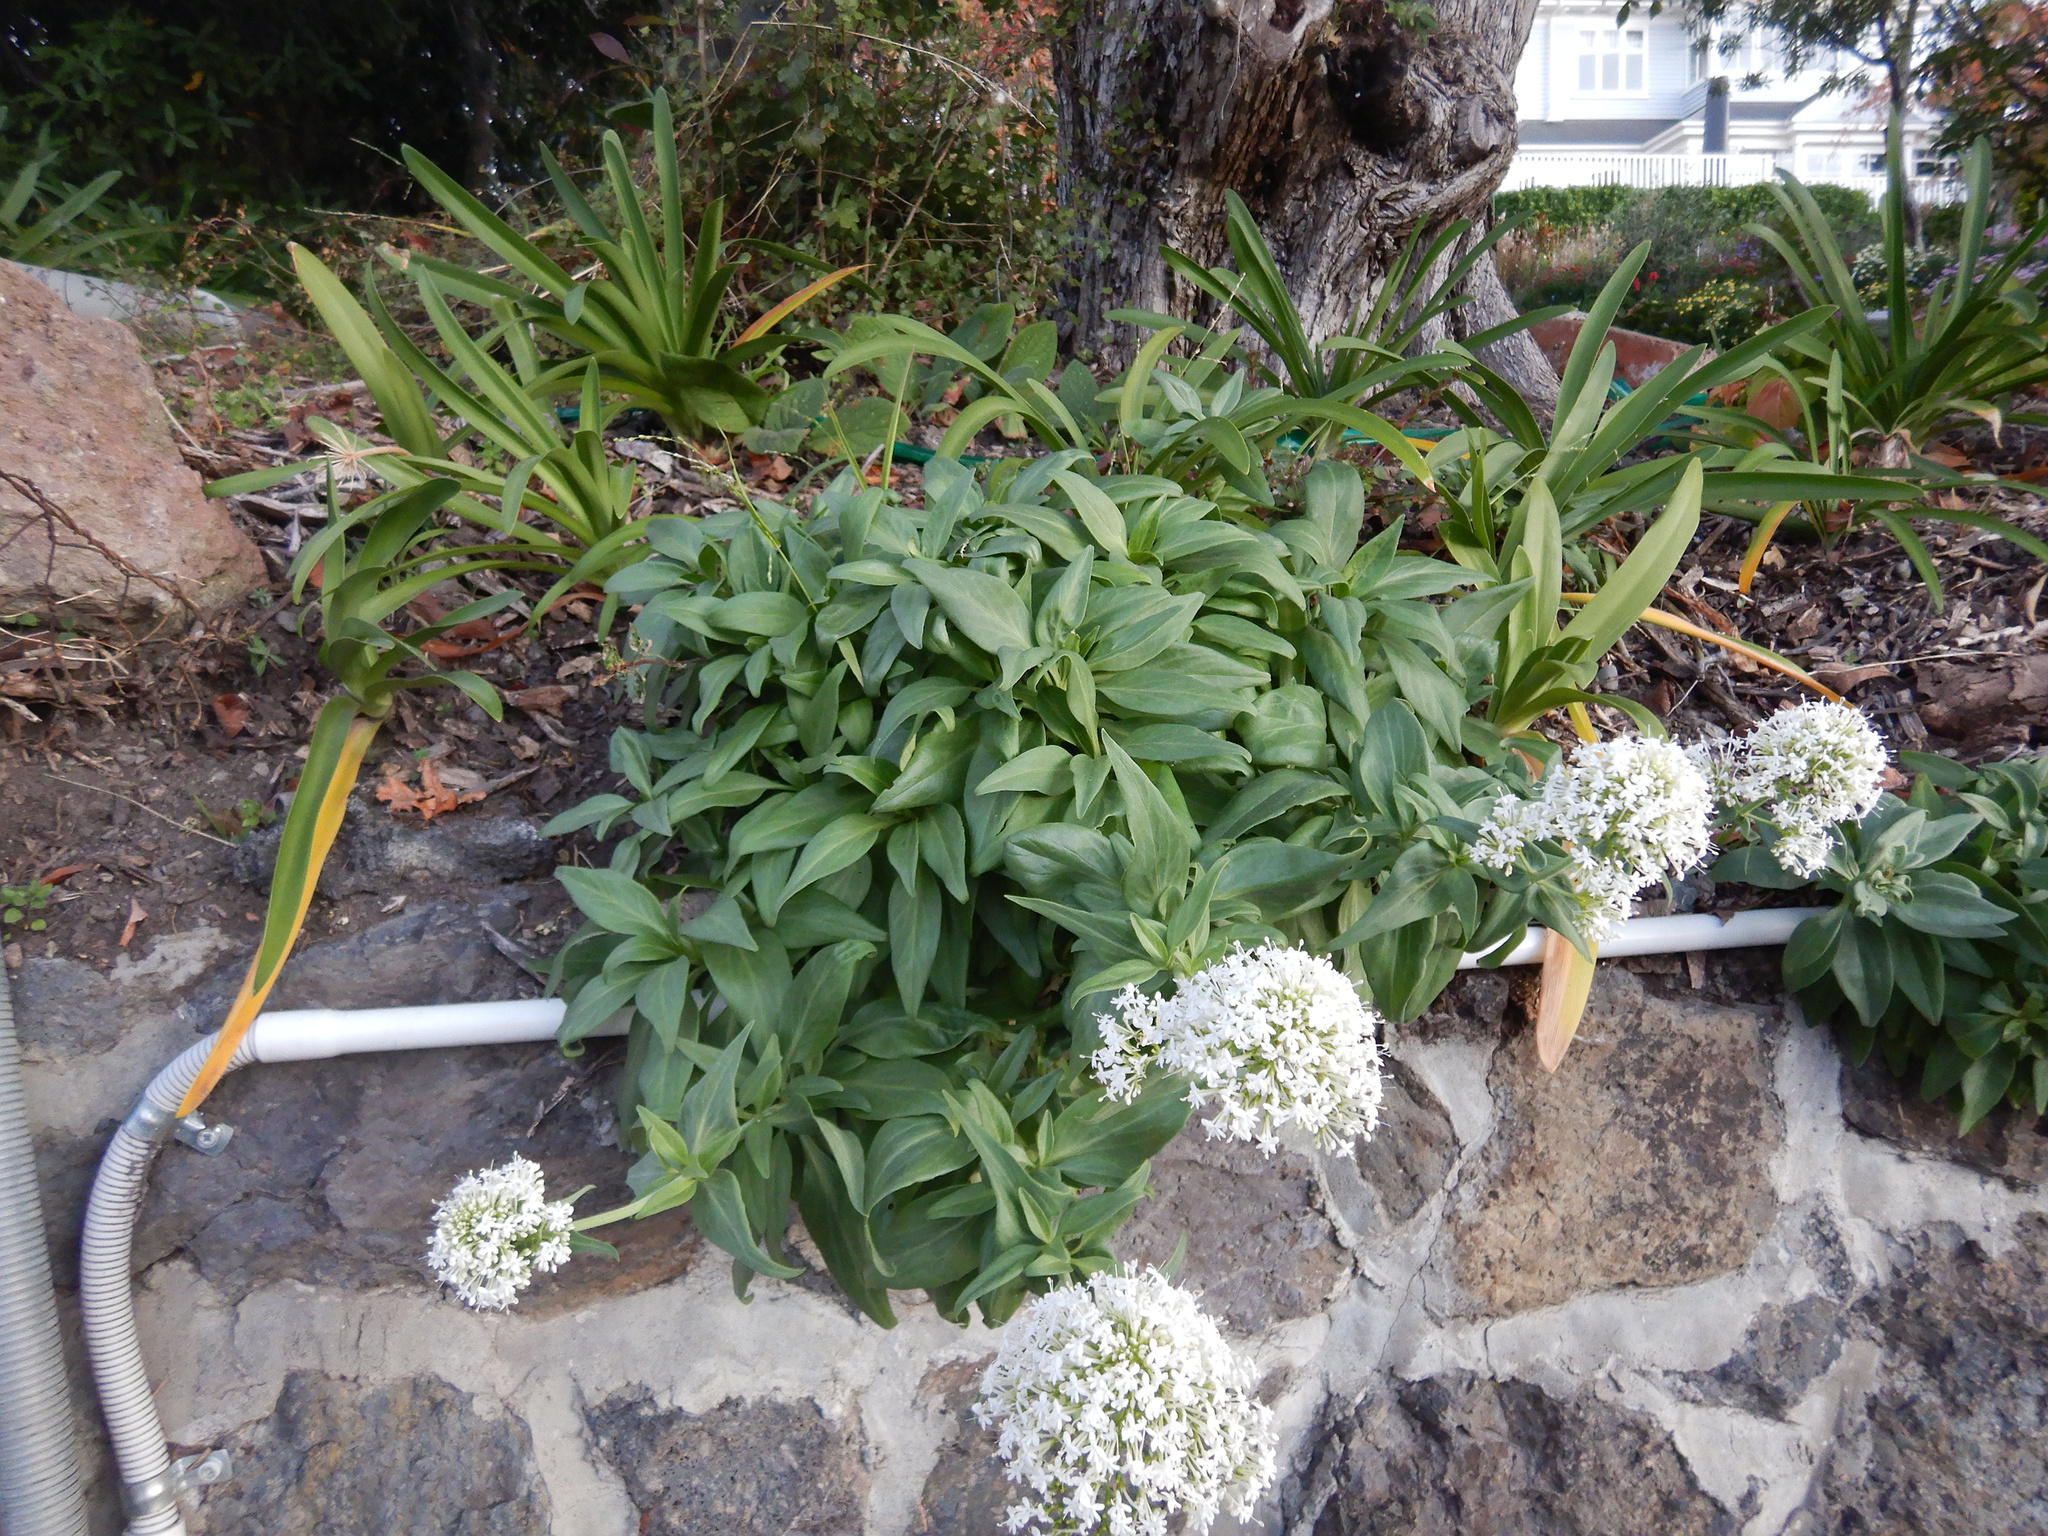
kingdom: Plantae
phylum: Tracheophyta
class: Magnoliopsida
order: Dipsacales
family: Caprifoliaceae
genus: Centranthus
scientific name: Centranthus ruber
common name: Red valerian
